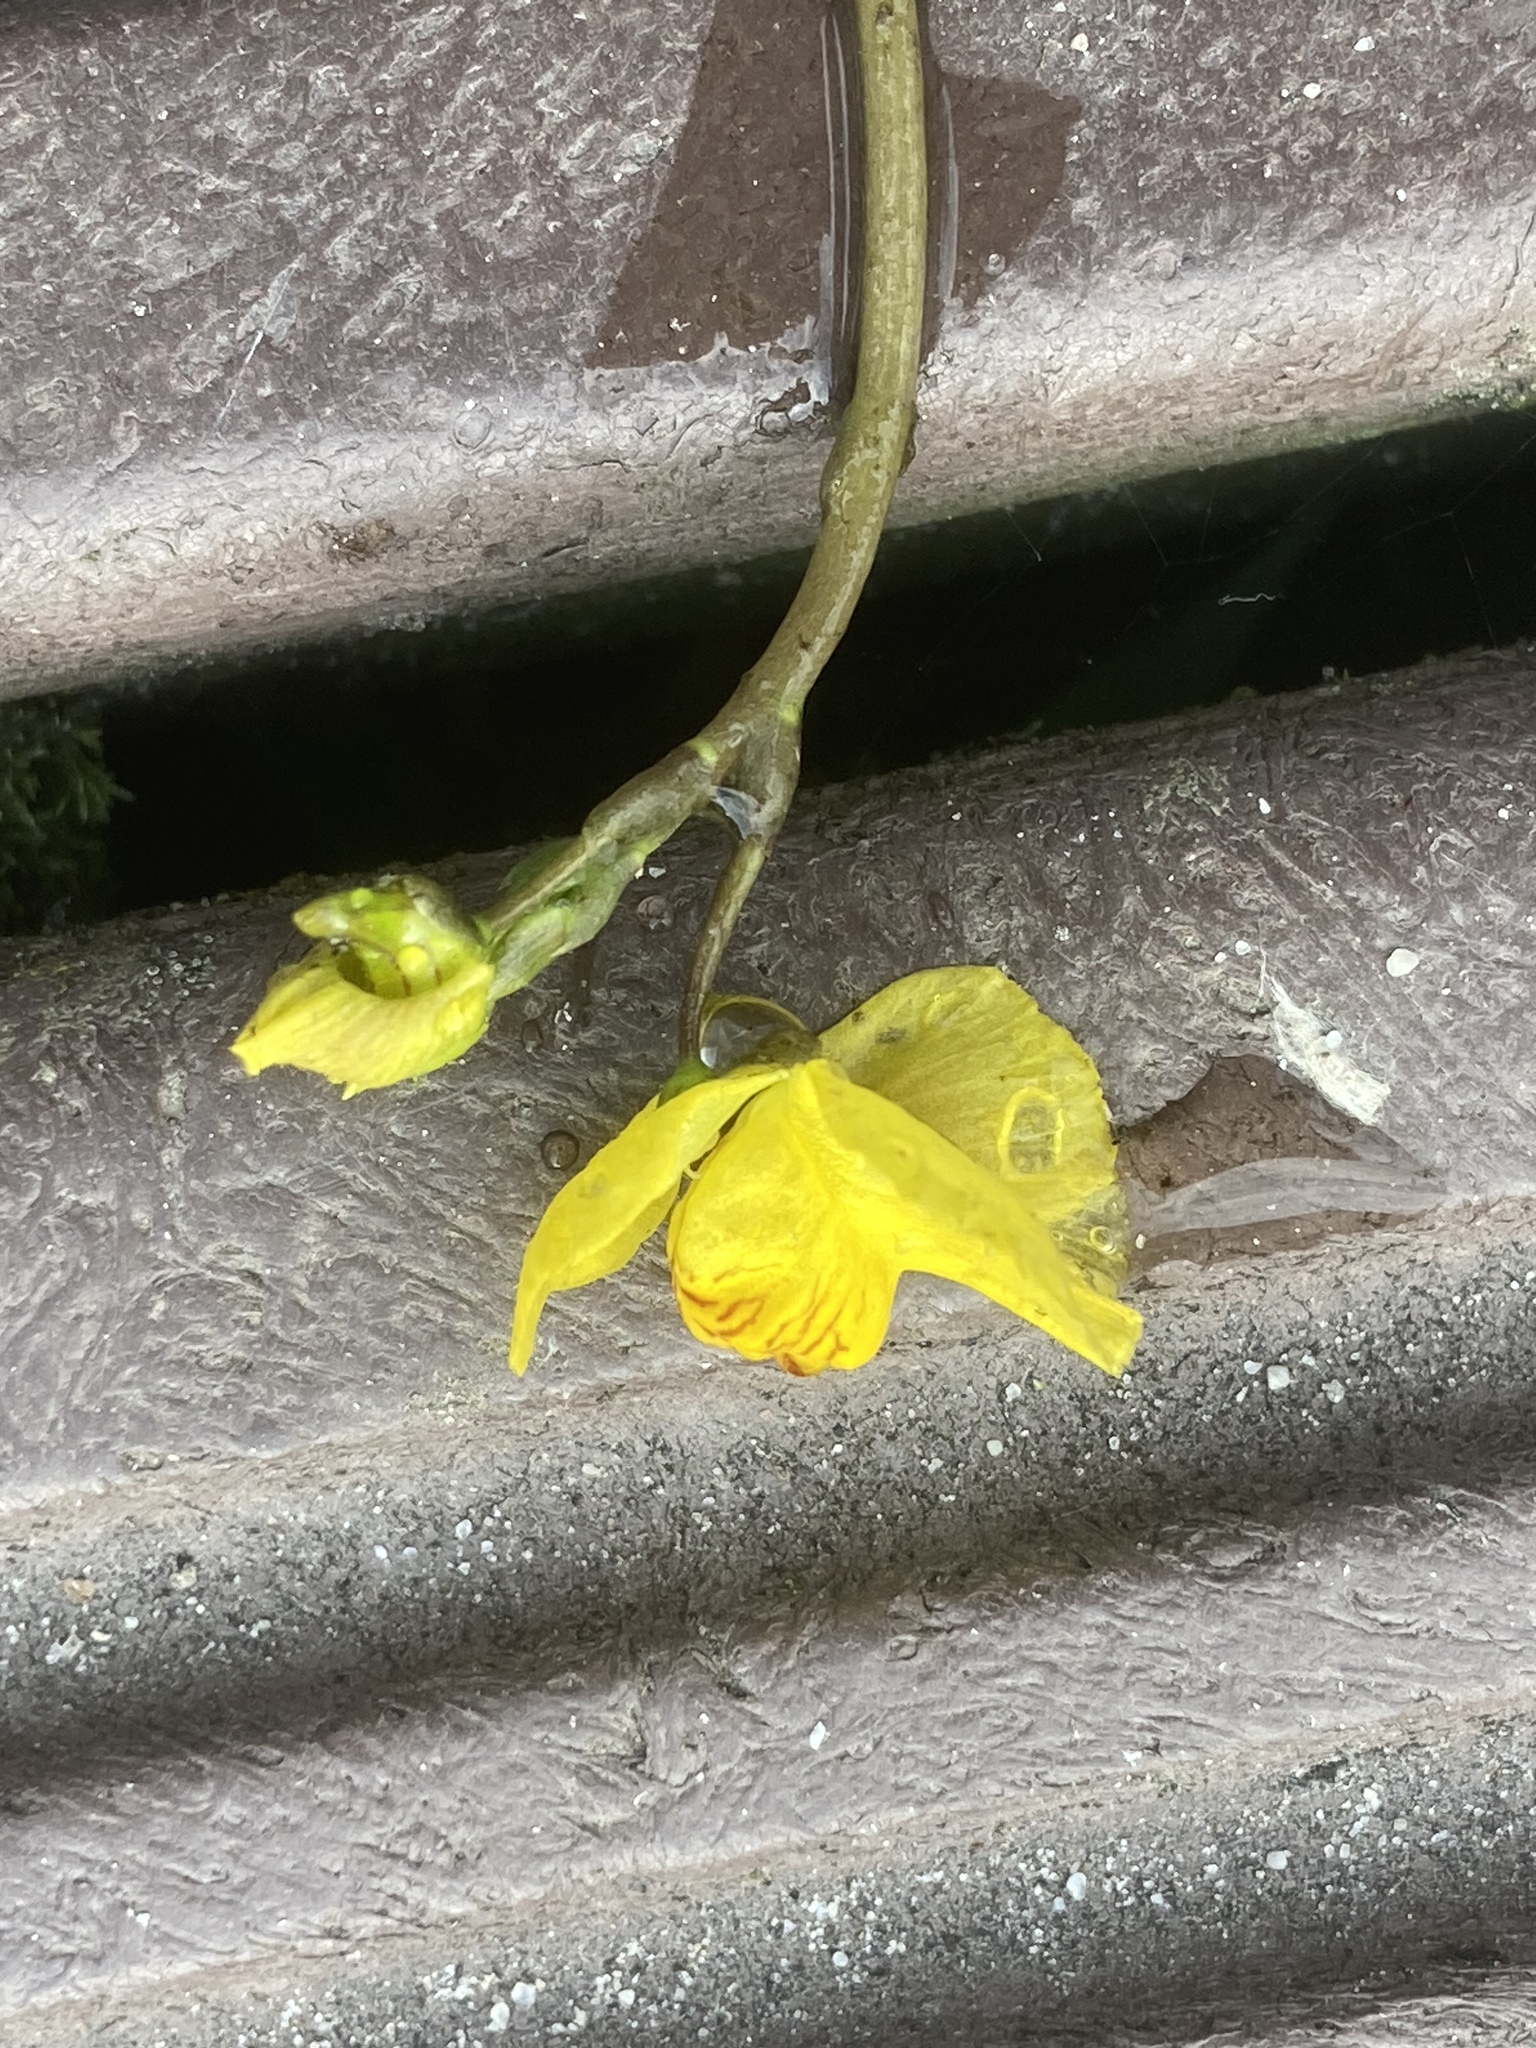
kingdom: Plantae
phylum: Tracheophyta
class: Magnoliopsida
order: Lamiales
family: Lentibulariaceae
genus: Utricularia
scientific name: Utricularia australis
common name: Bladderwort
